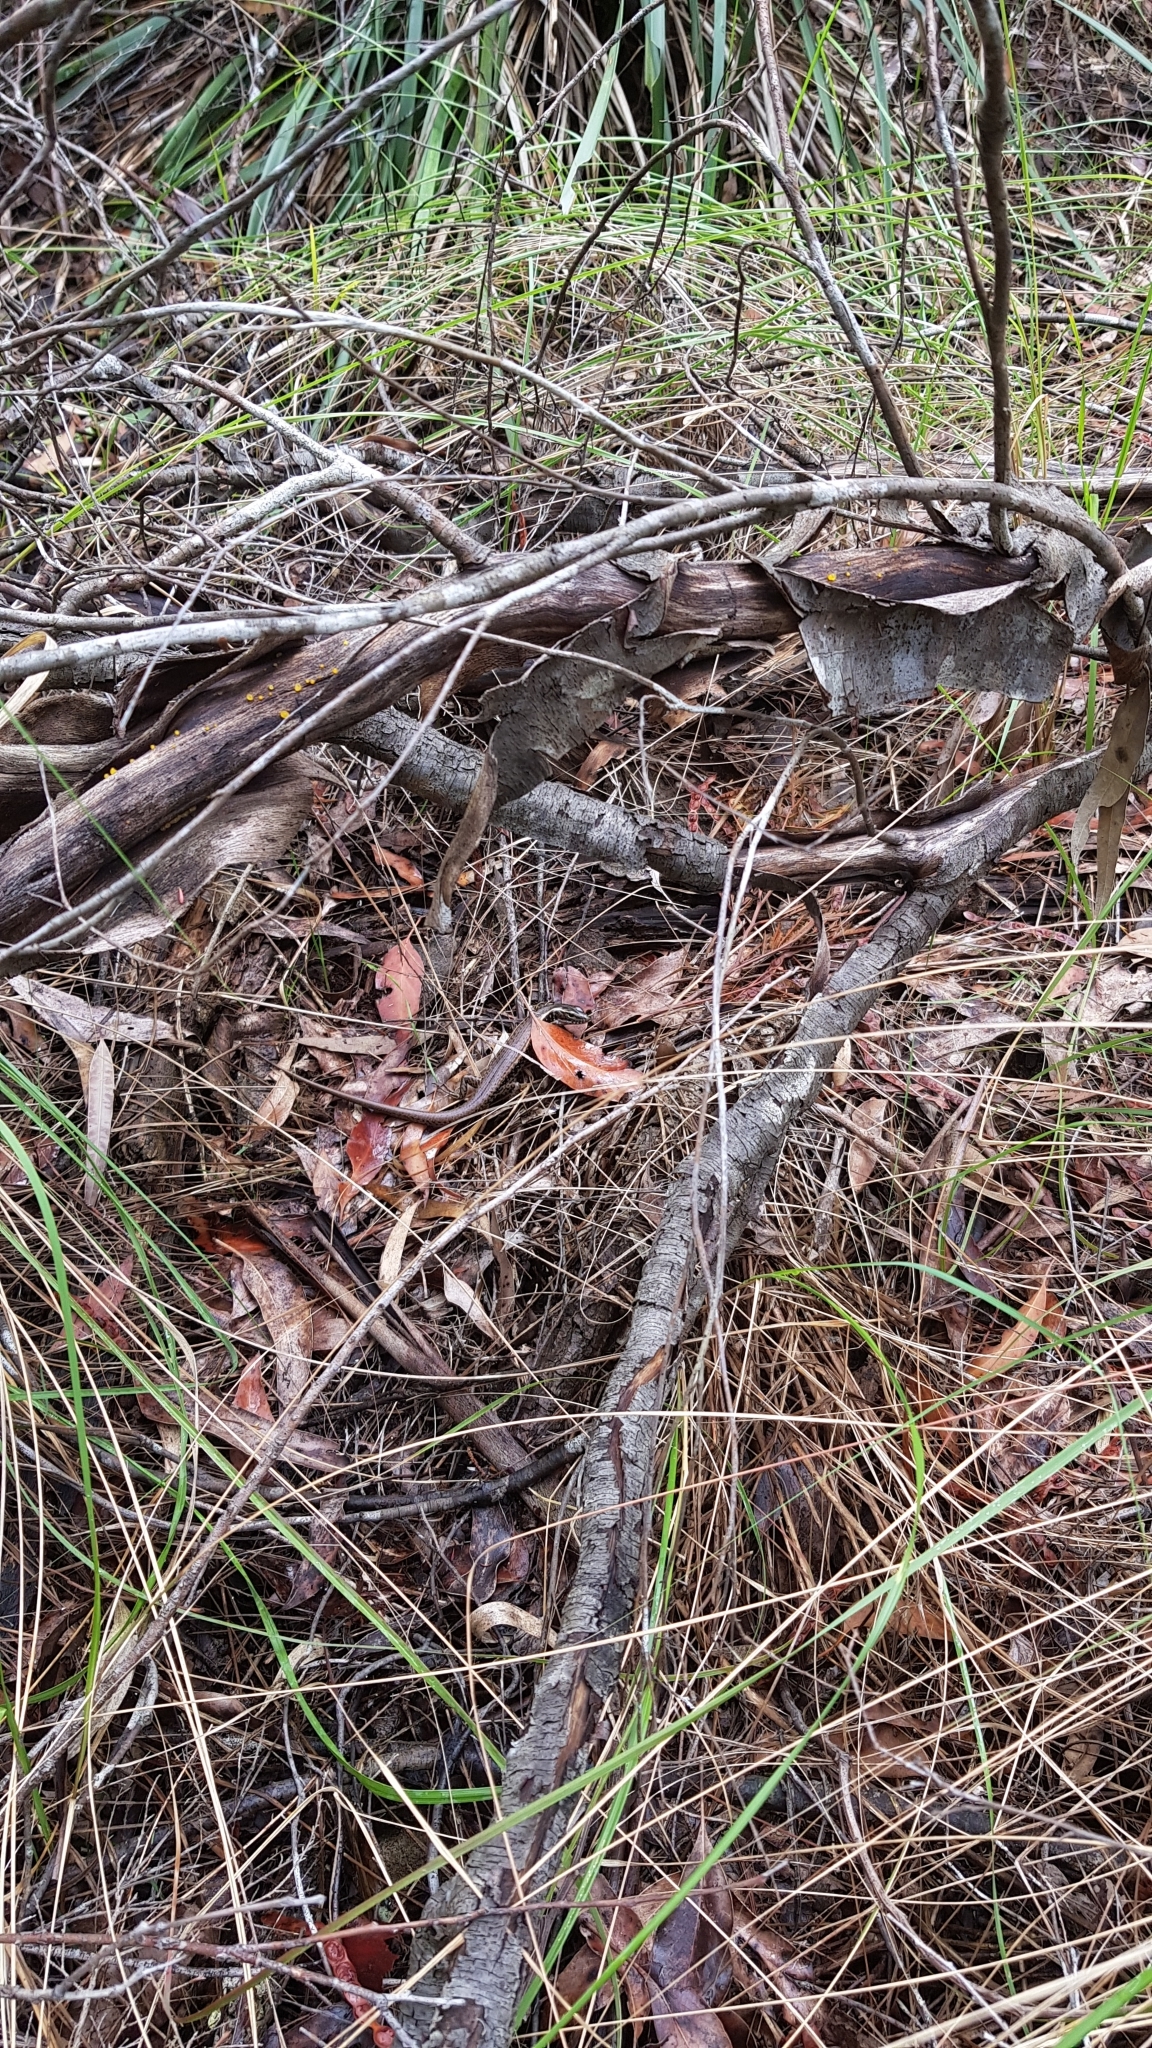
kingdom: Animalia
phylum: Chordata
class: Squamata
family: Scincidae
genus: Eulamprus
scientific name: Eulamprus quoyii
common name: Eastern water skink
